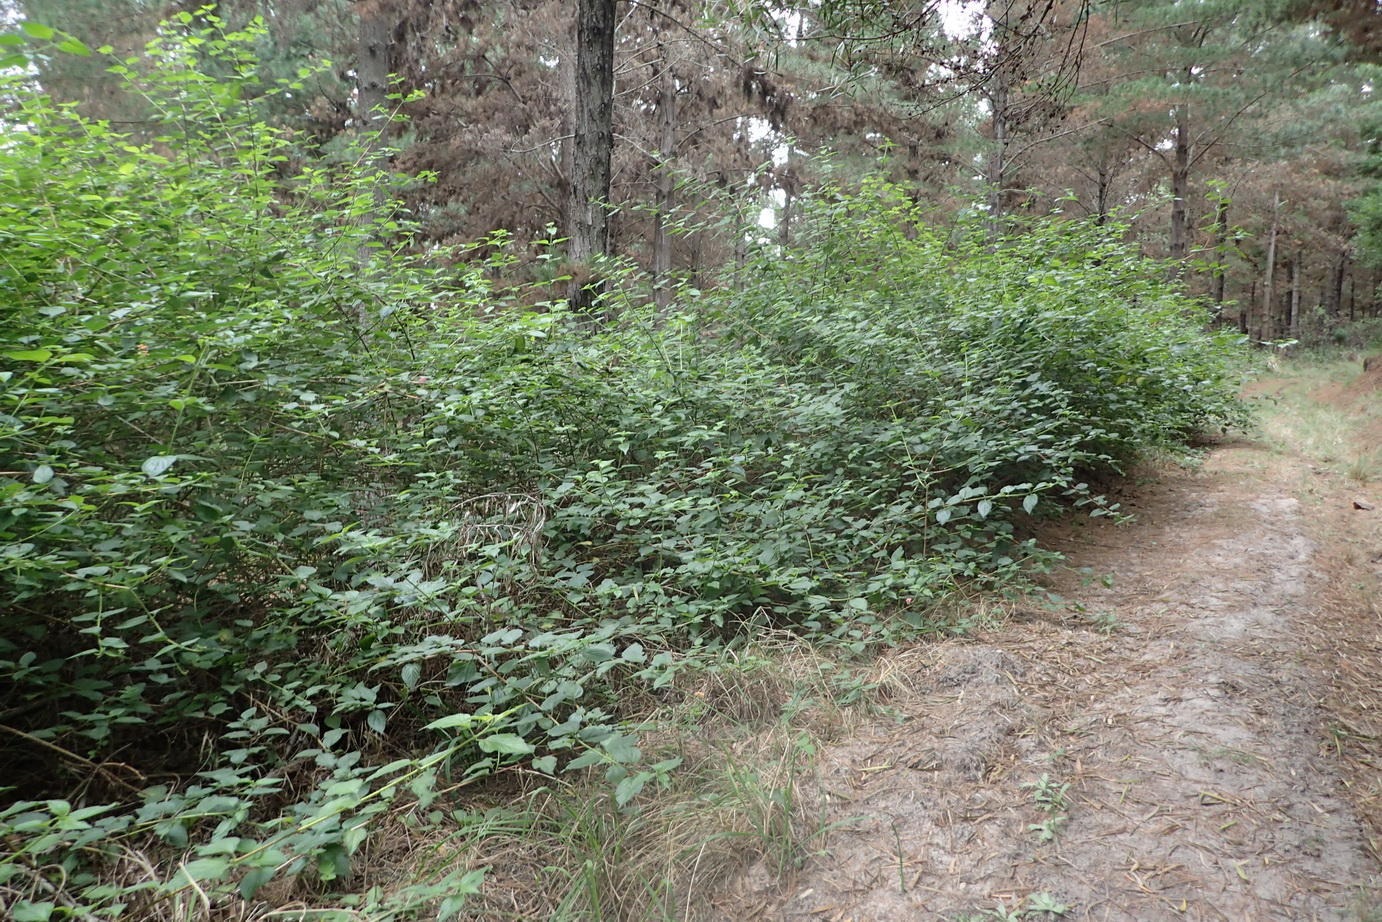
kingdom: Plantae
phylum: Tracheophyta
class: Magnoliopsida
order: Lamiales
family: Verbenaceae
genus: Lantana
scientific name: Lantana camara
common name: Lantana
